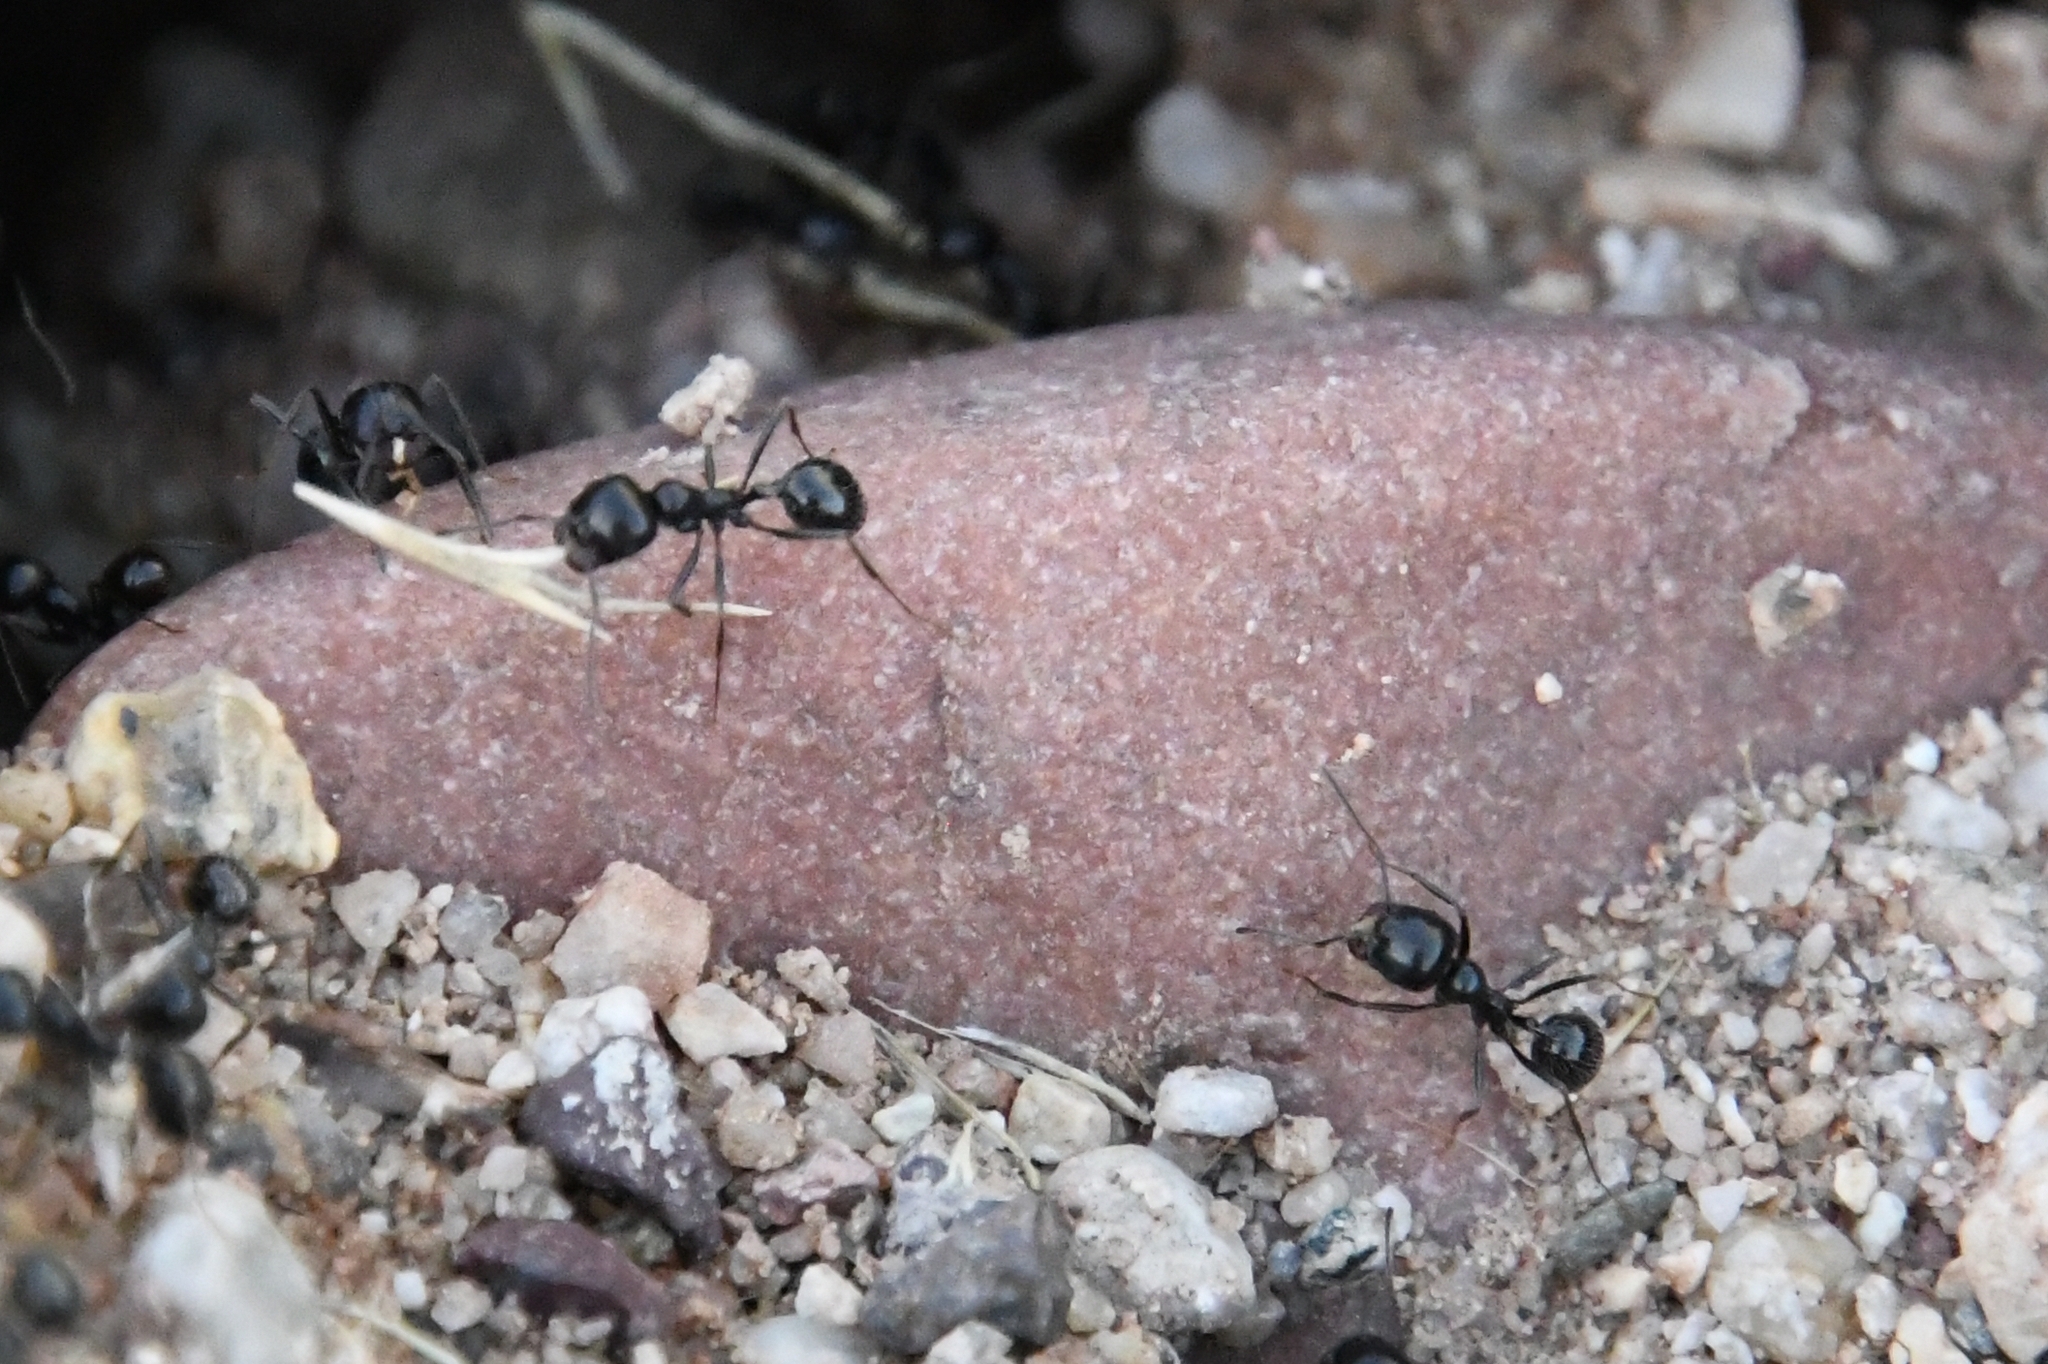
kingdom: Animalia
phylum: Arthropoda
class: Insecta
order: Hymenoptera
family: Formicidae
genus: Messor
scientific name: Messor pergandei
